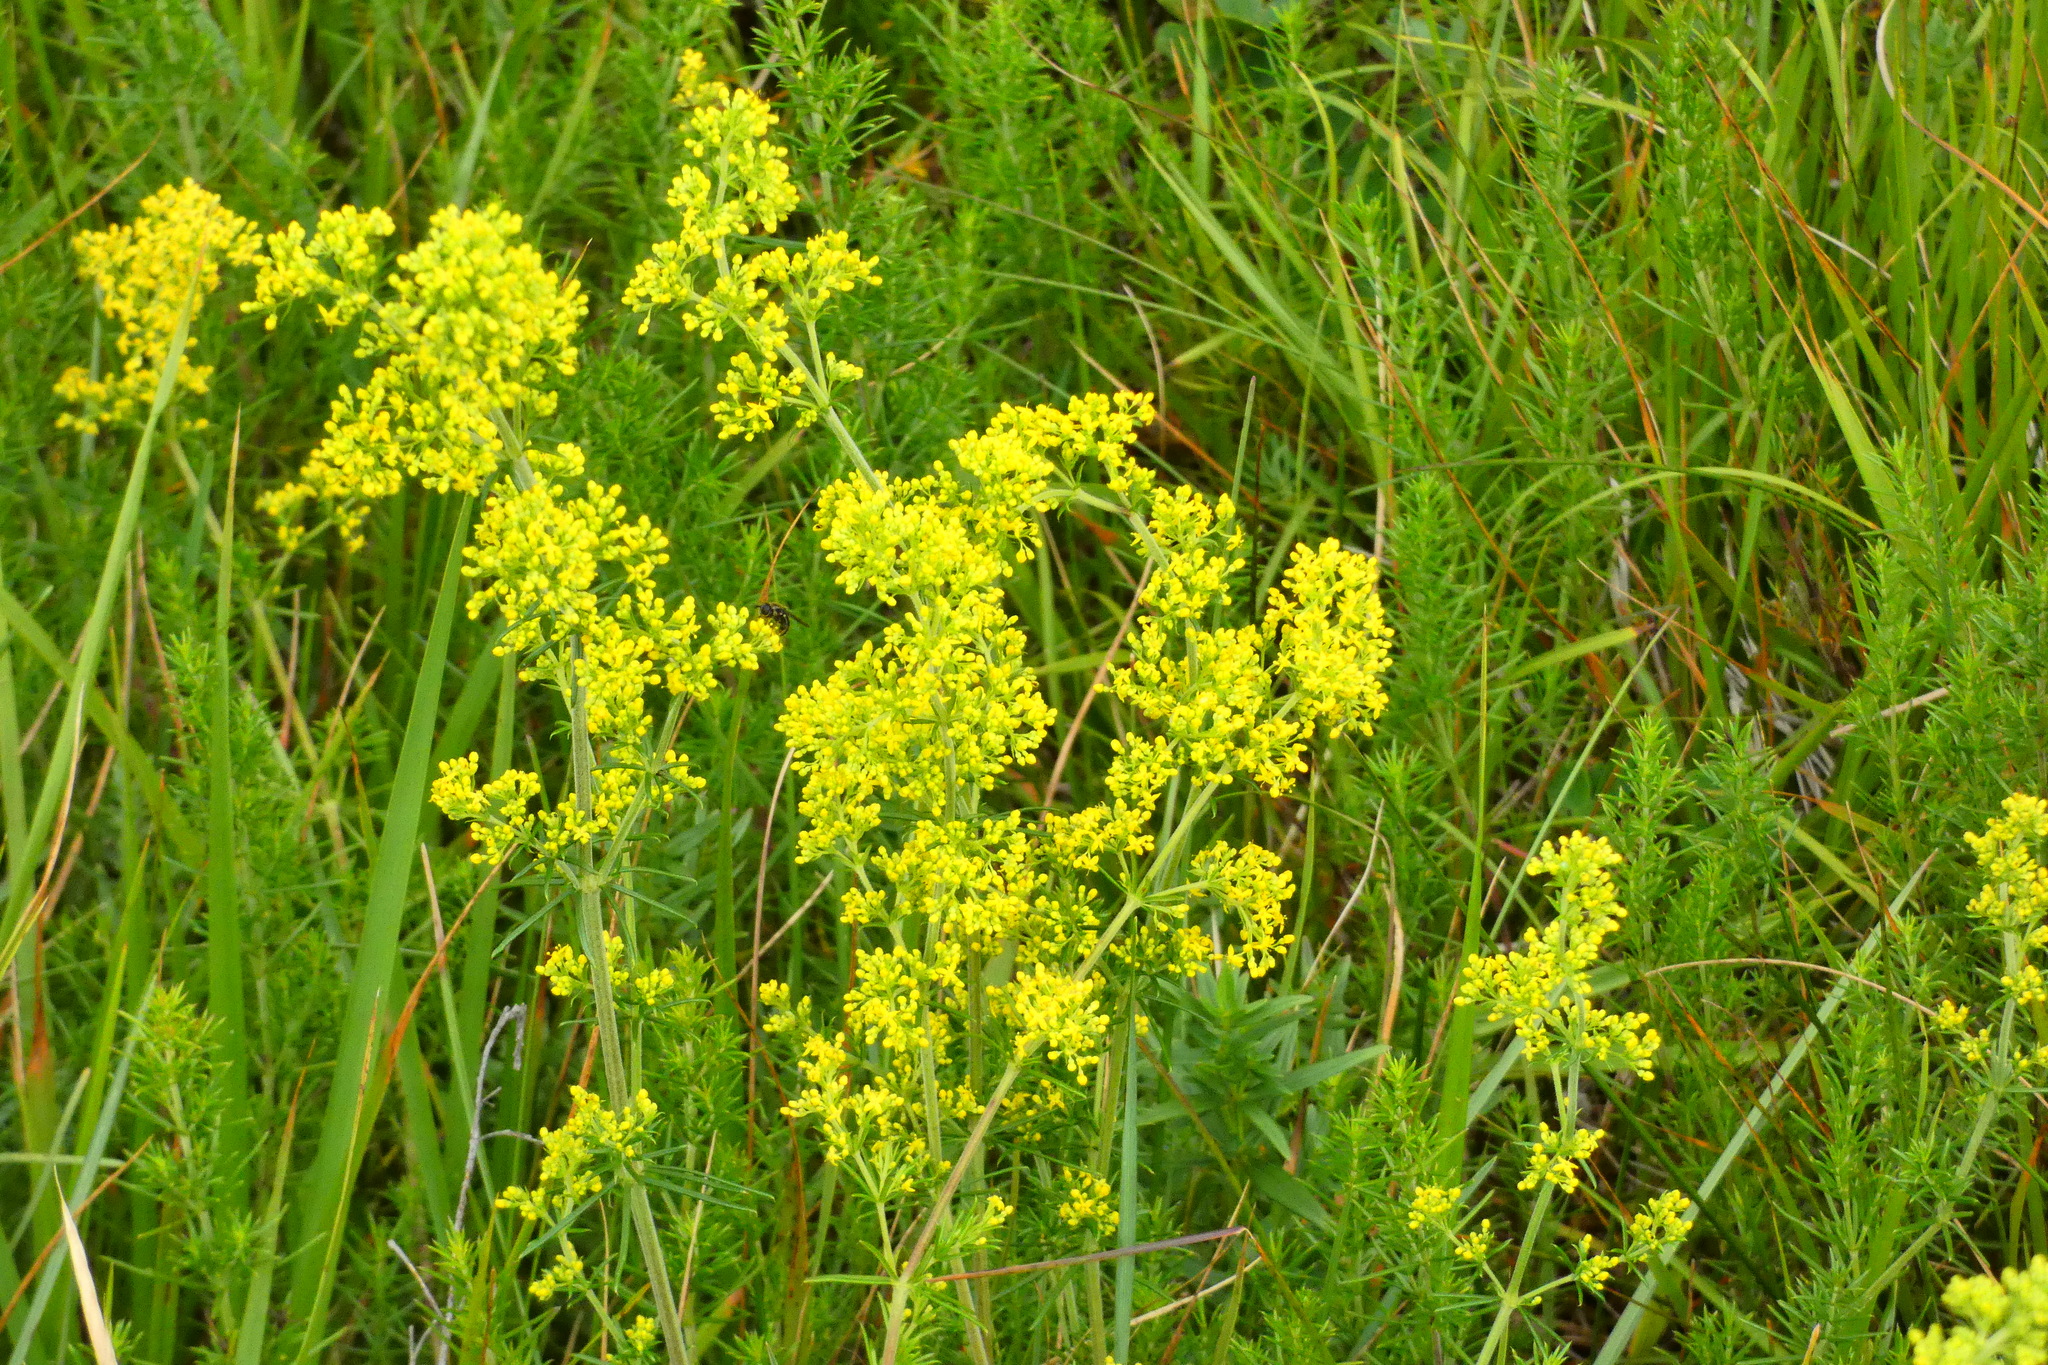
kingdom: Plantae
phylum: Tracheophyta
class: Magnoliopsida
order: Gentianales
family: Rubiaceae
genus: Galium
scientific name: Galium verum
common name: Lady's bedstraw
